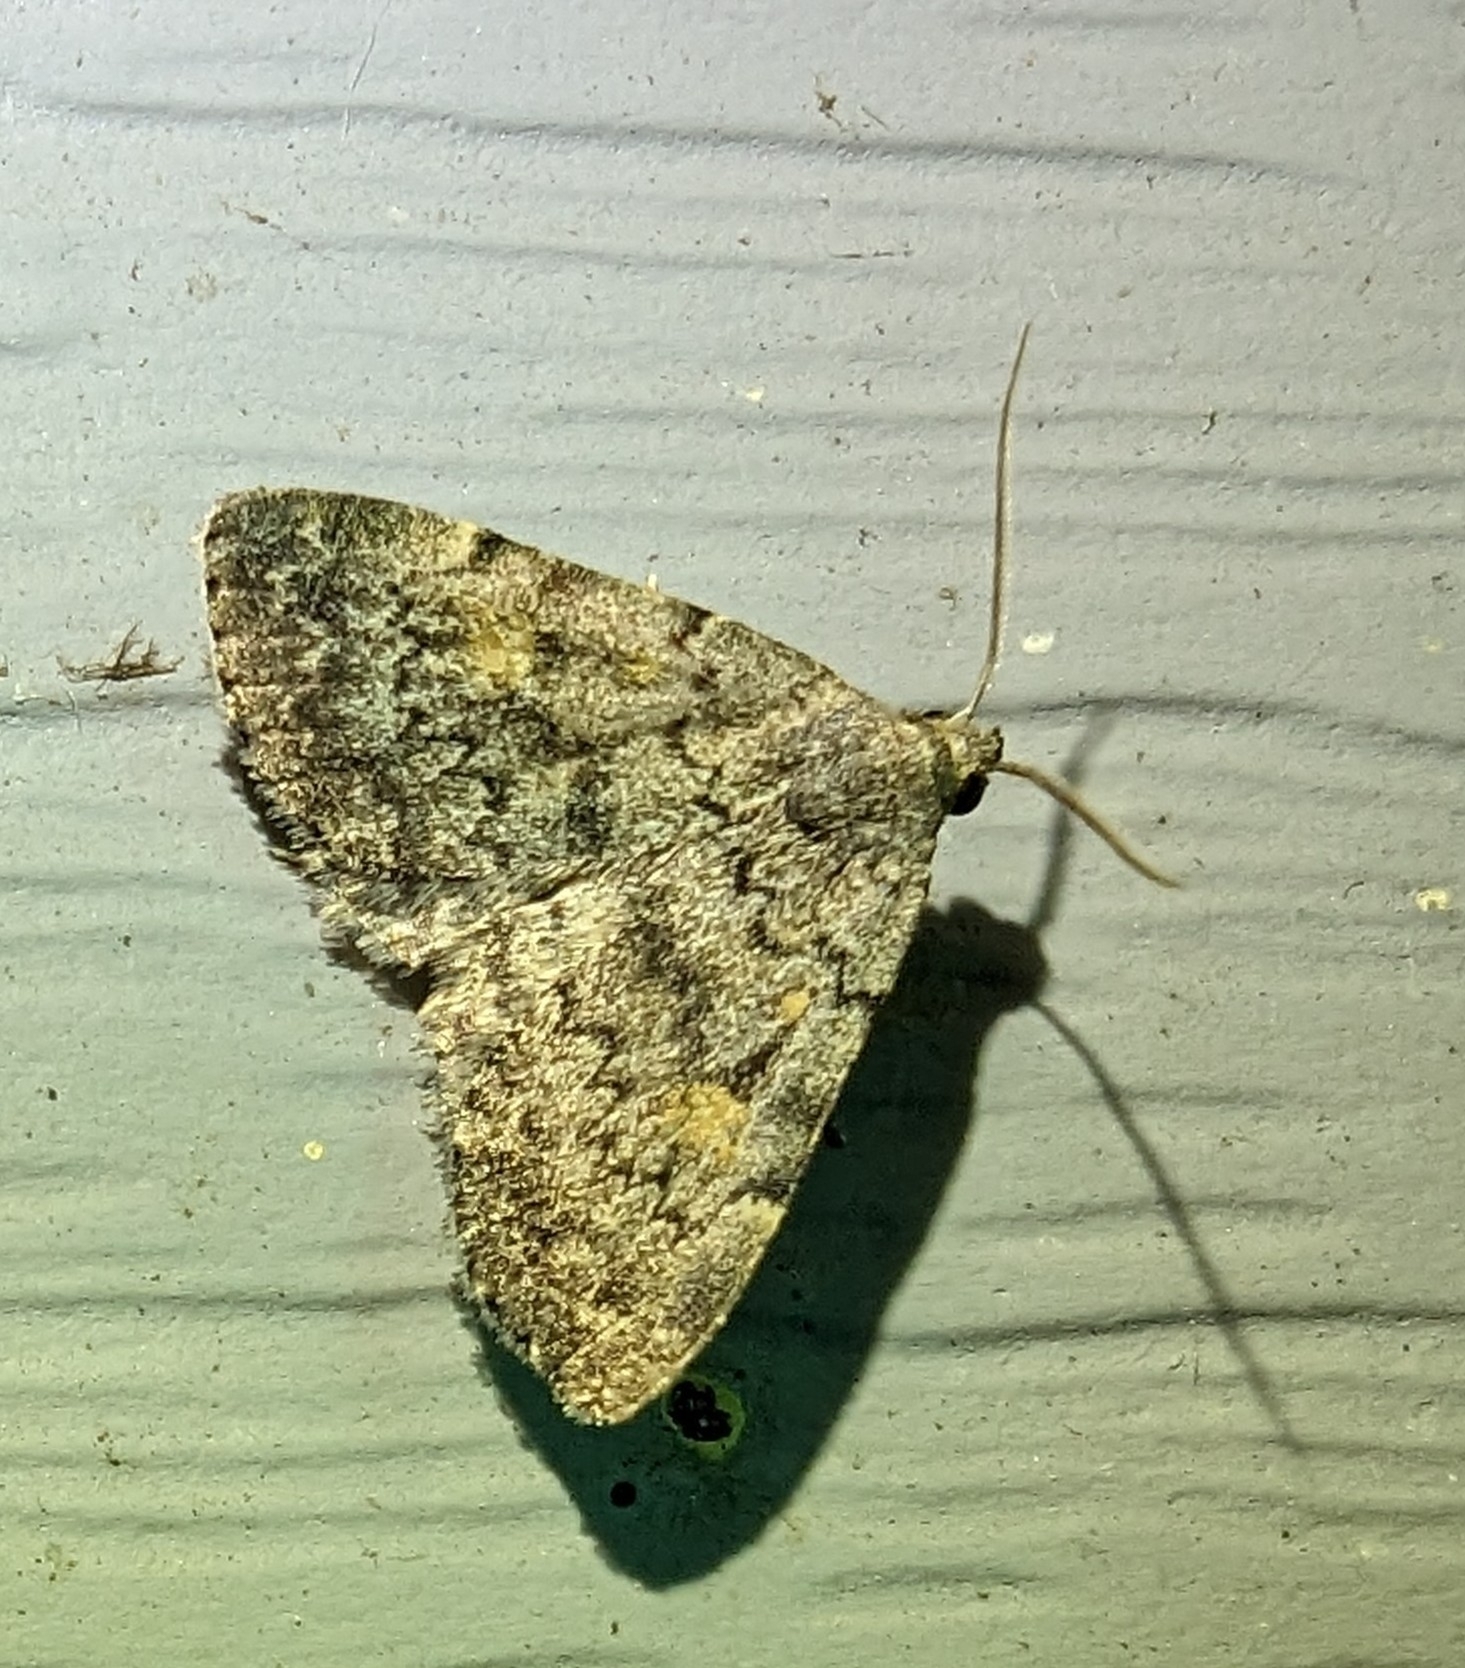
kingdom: Animalia
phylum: Arthropoda
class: Insecta
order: Lepidoptera
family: Erebidae
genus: Idia
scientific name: Idia aemula
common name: Common idia moth
